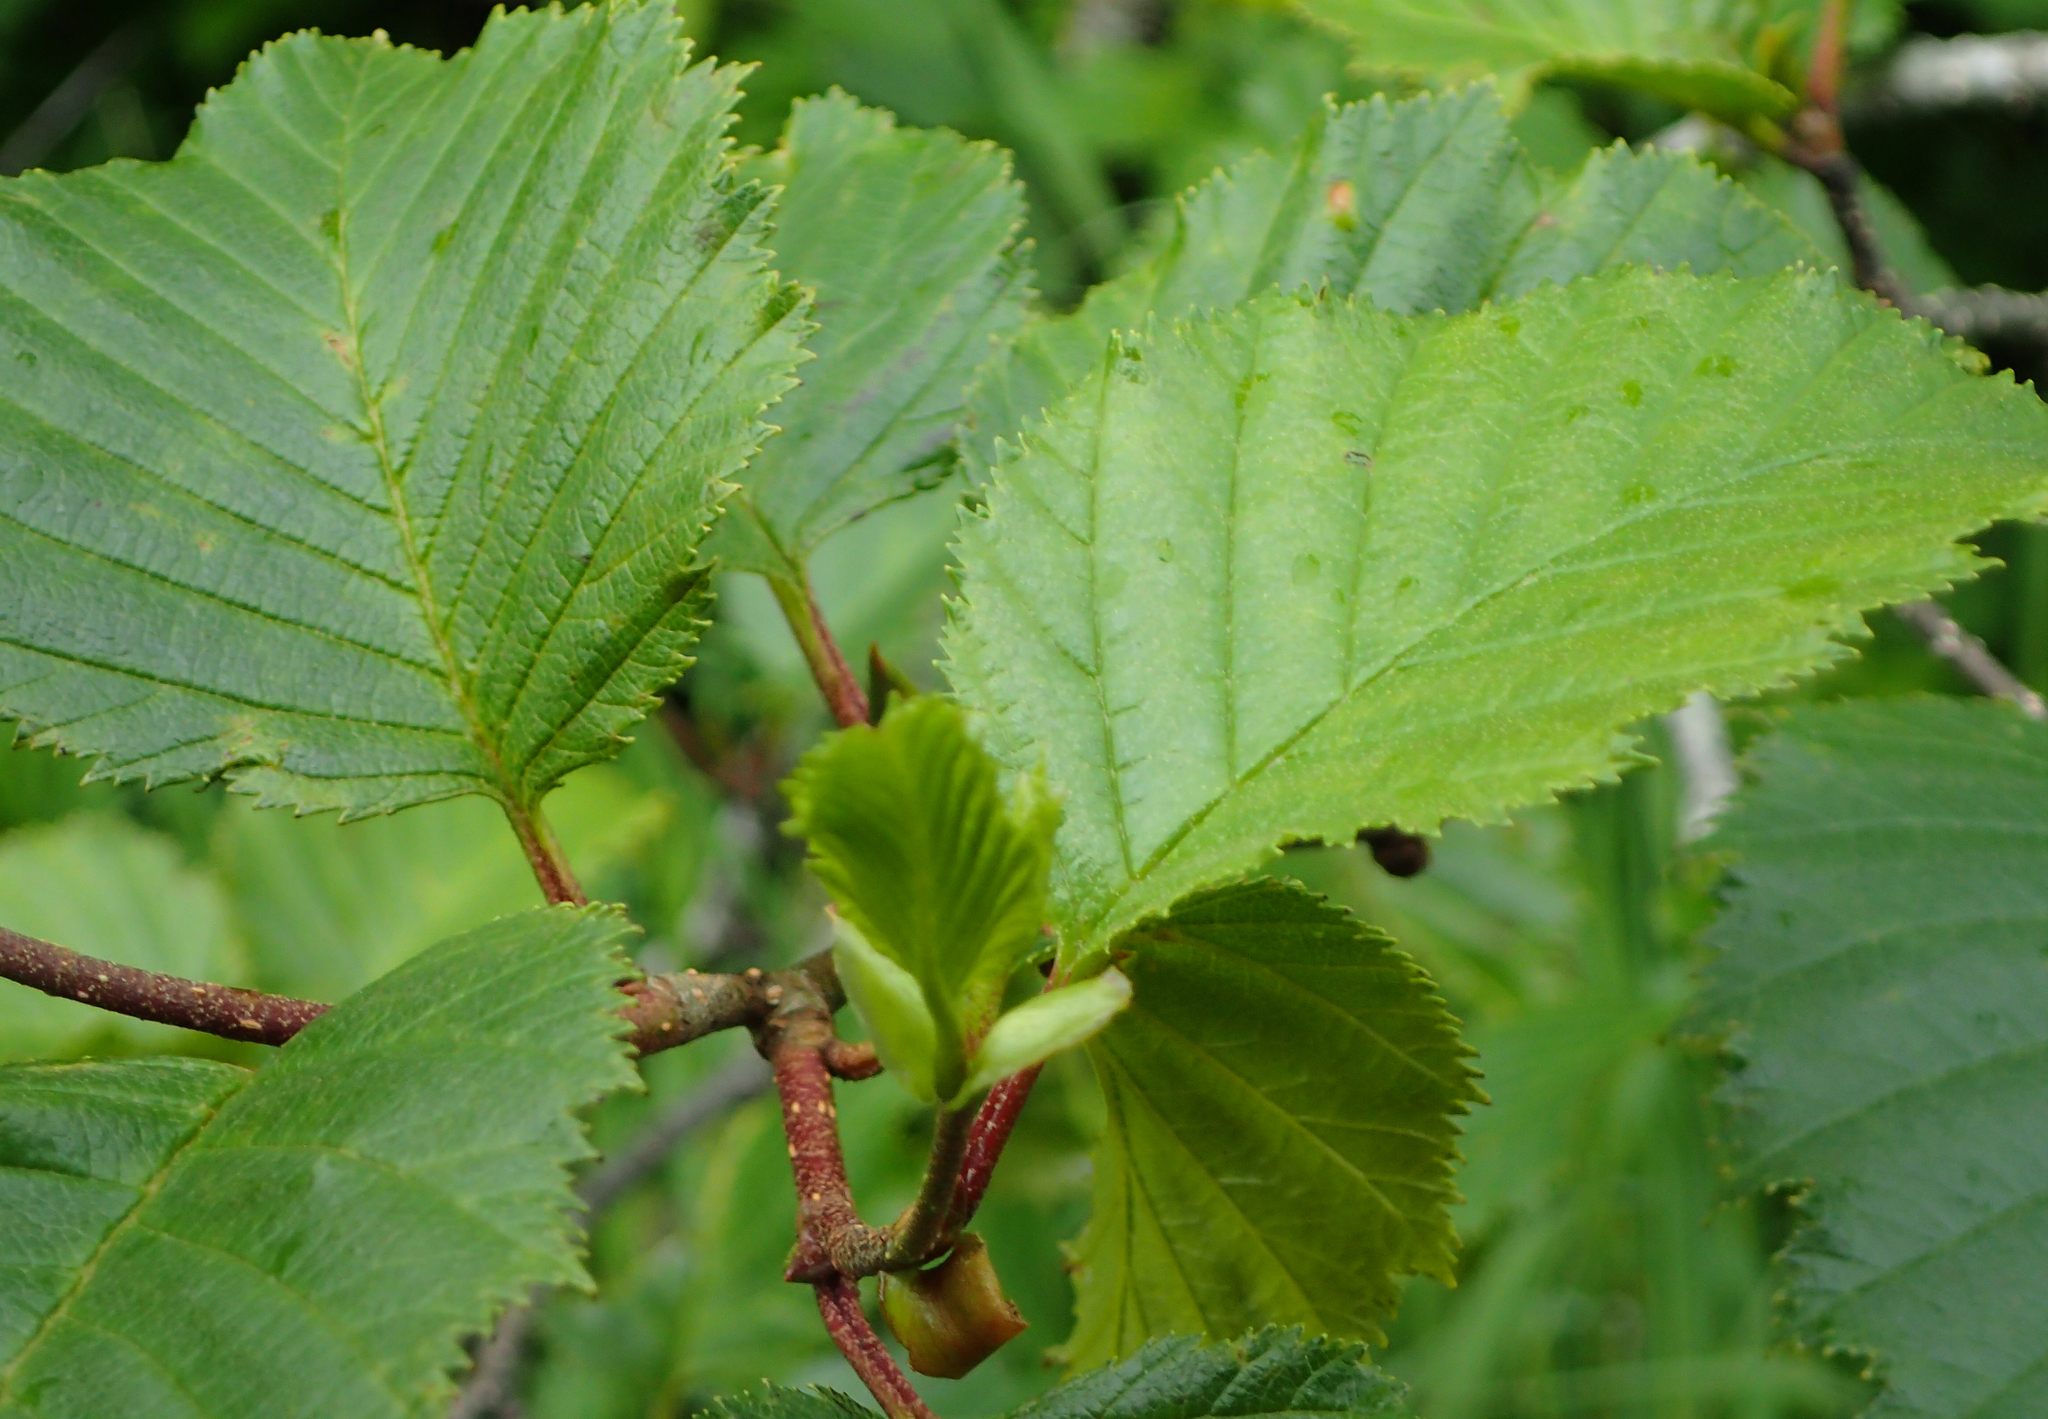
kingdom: Plantae
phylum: Tracheophyta
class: Magnoliopsida
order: Fagales
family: Betulaceae
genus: Alnus
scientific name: Alnus alnobetula
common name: Green alder
